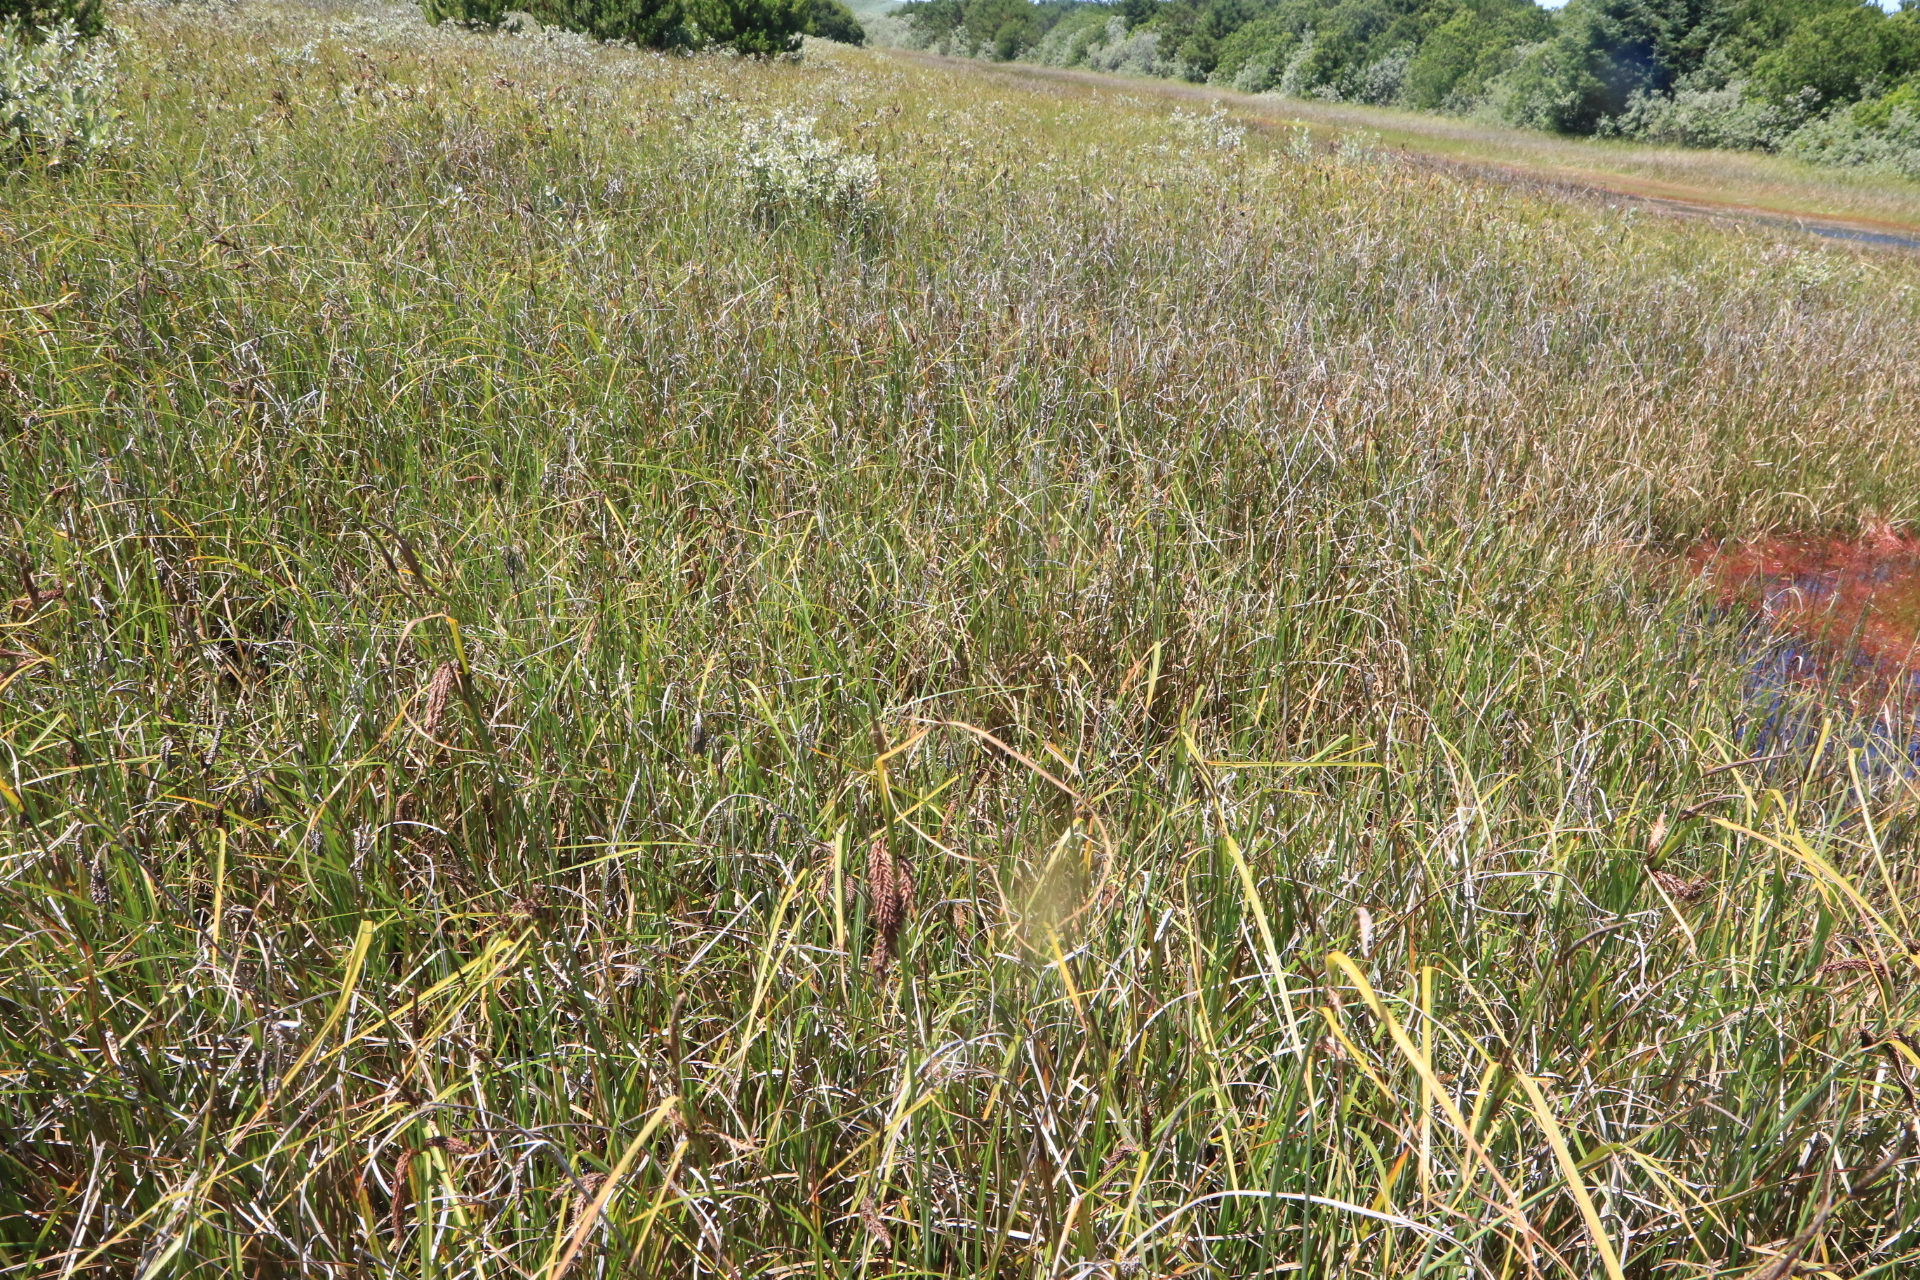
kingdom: Plantae
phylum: Tracheophyta
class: Liliopsida
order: Poales
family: Cyperaceae
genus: Carex
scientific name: Carex obnupta
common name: Slough sedge
